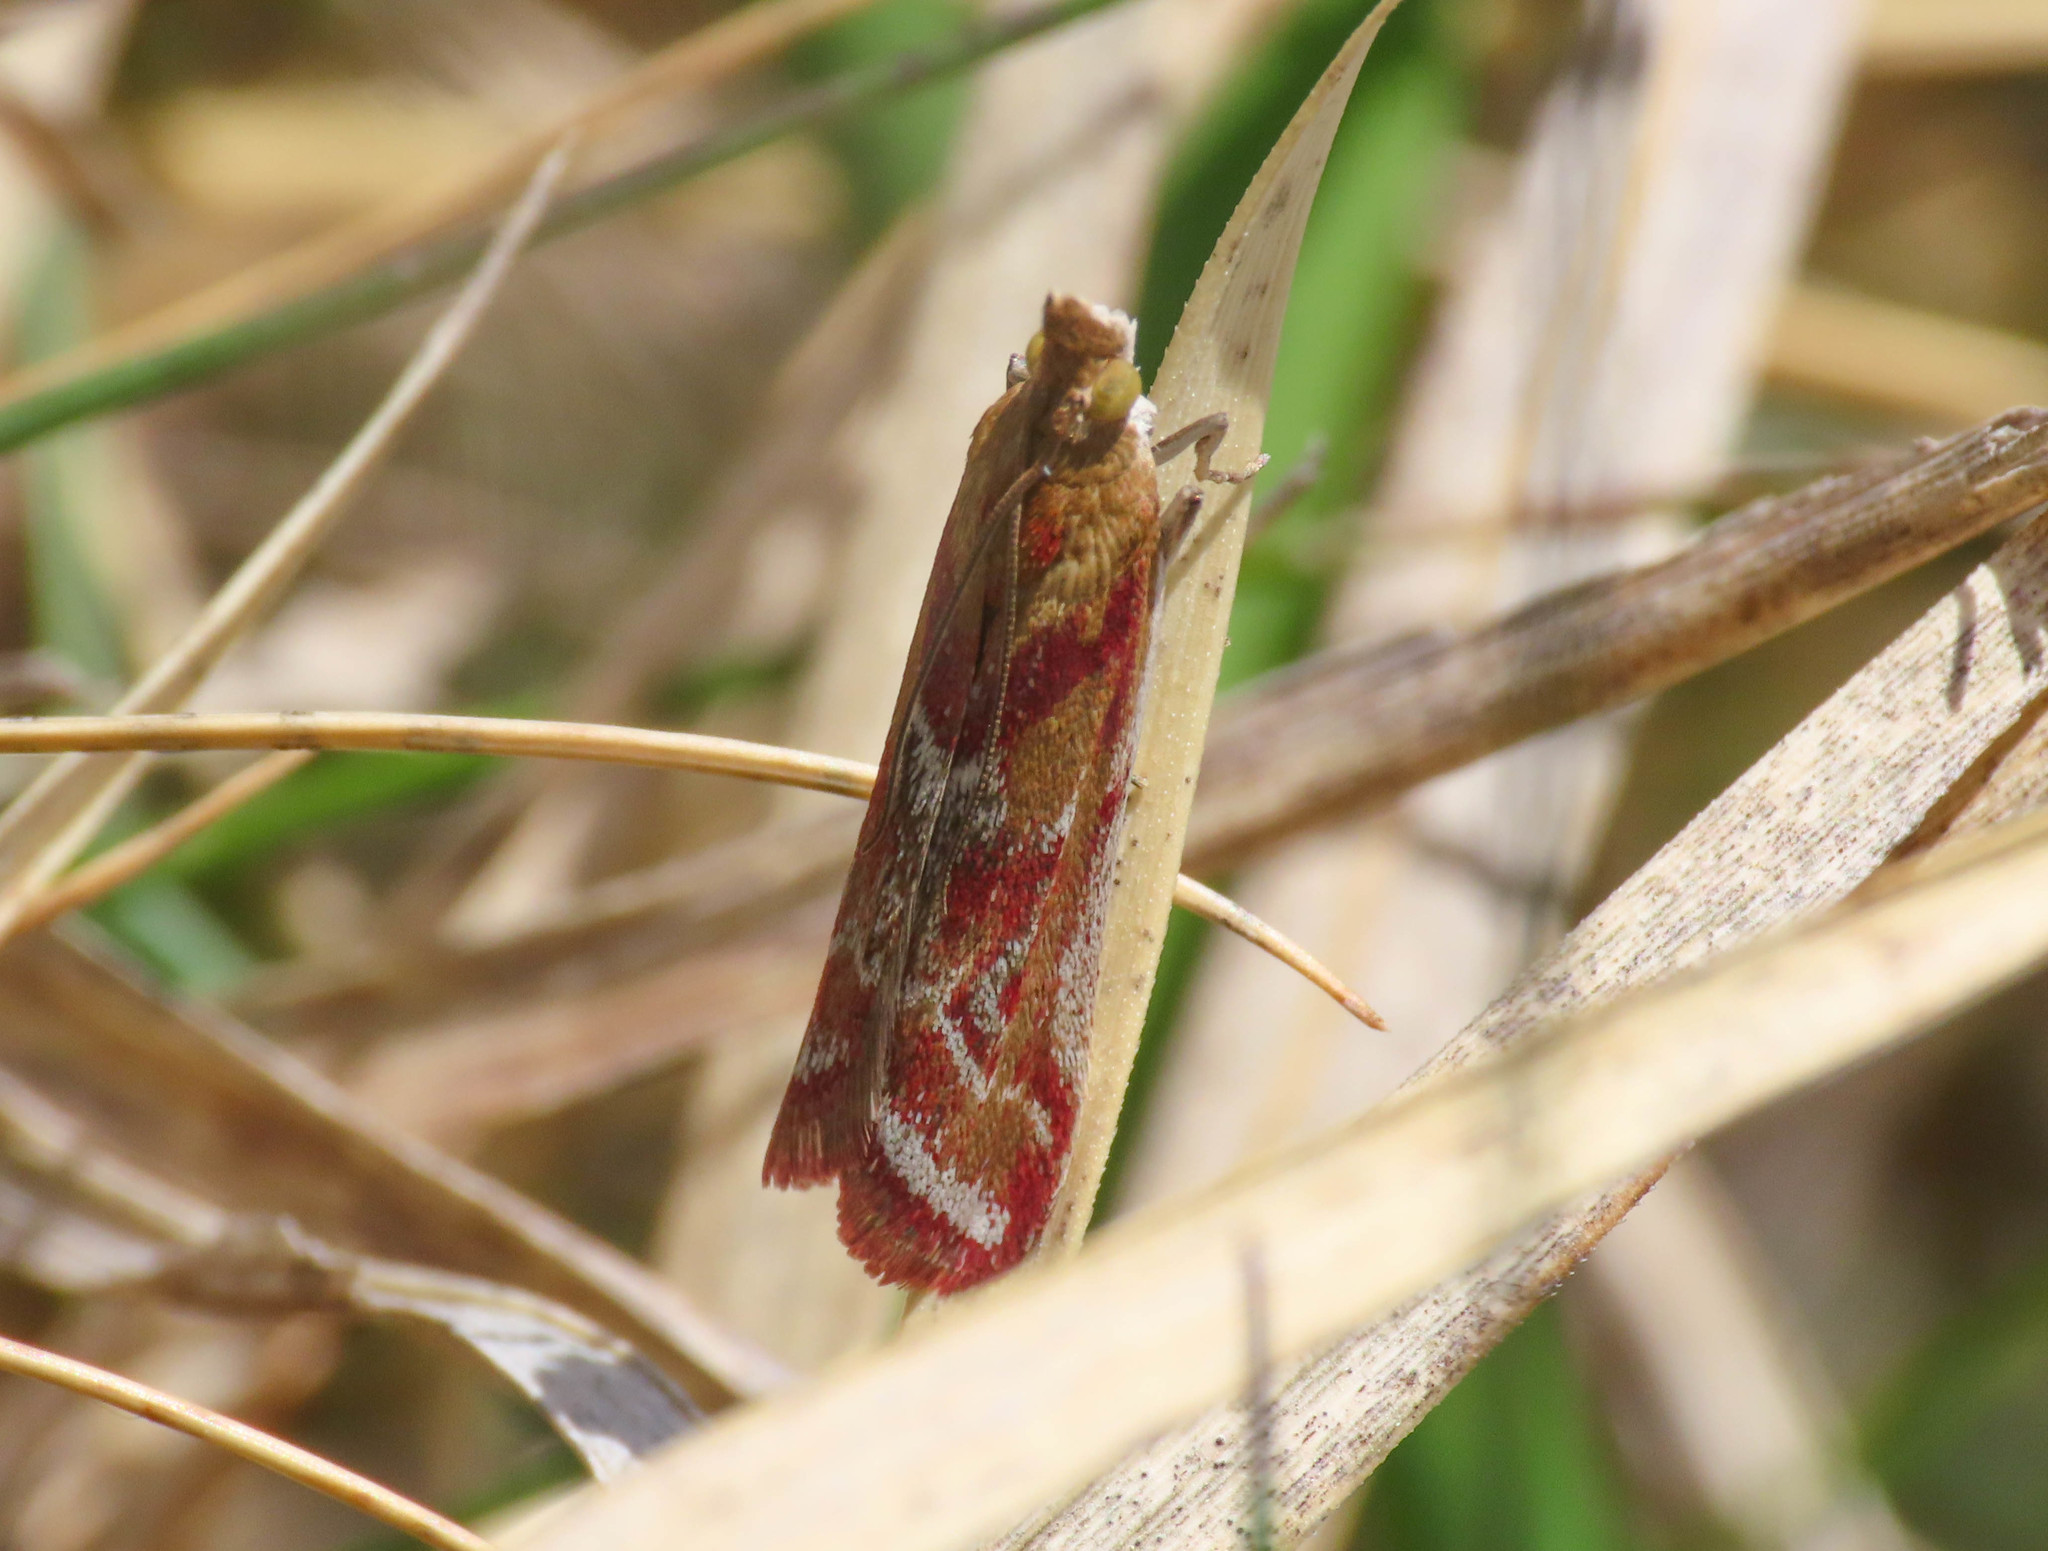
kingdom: Animalia
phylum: Arthropoda
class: Insecta
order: Lepidoptera
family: Pyralidae
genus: Ancylosis
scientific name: Ancylosis cinnamomella
